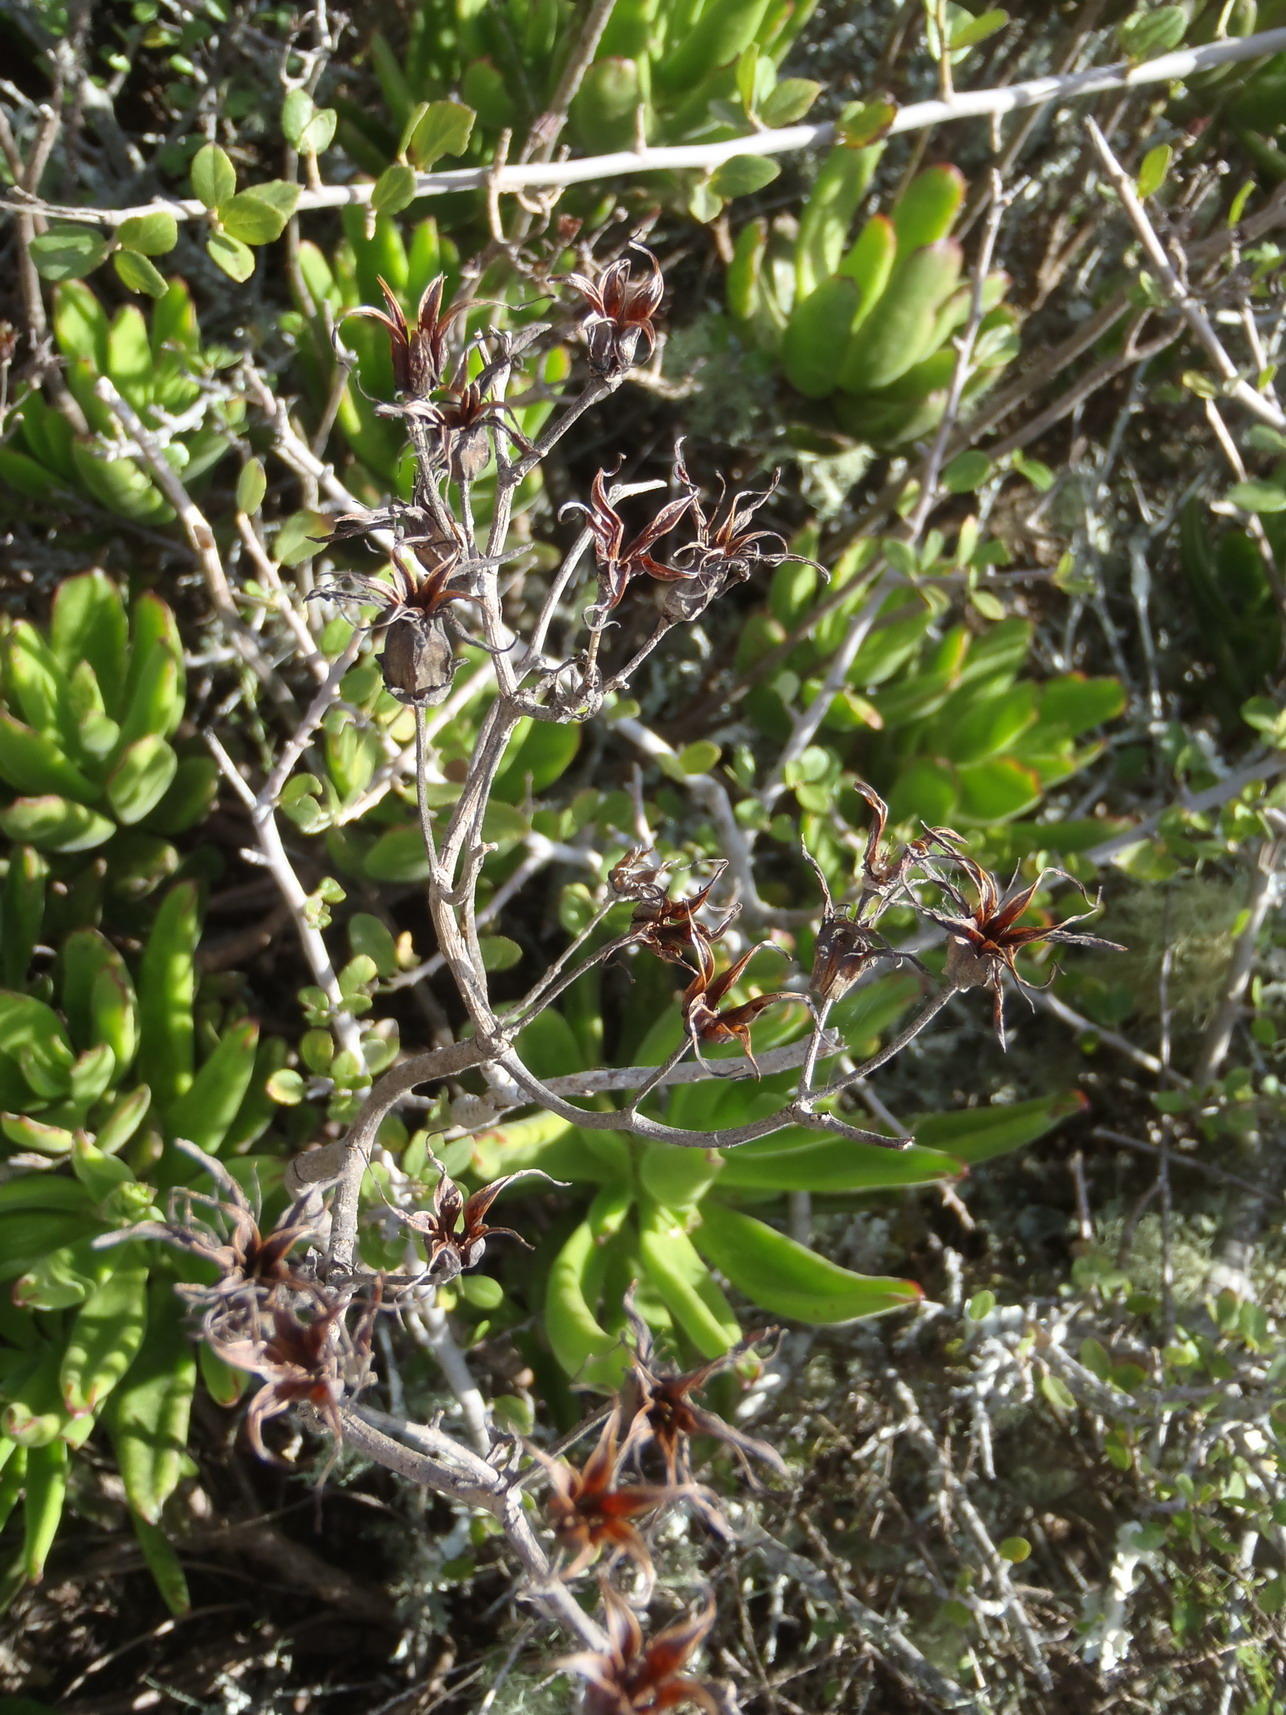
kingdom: Plantae
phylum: Tracheophyta
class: Magnoliopsida
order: Saxifragales
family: Crassulaceae
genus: Cotyledon
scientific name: Cotyledon campanulata
